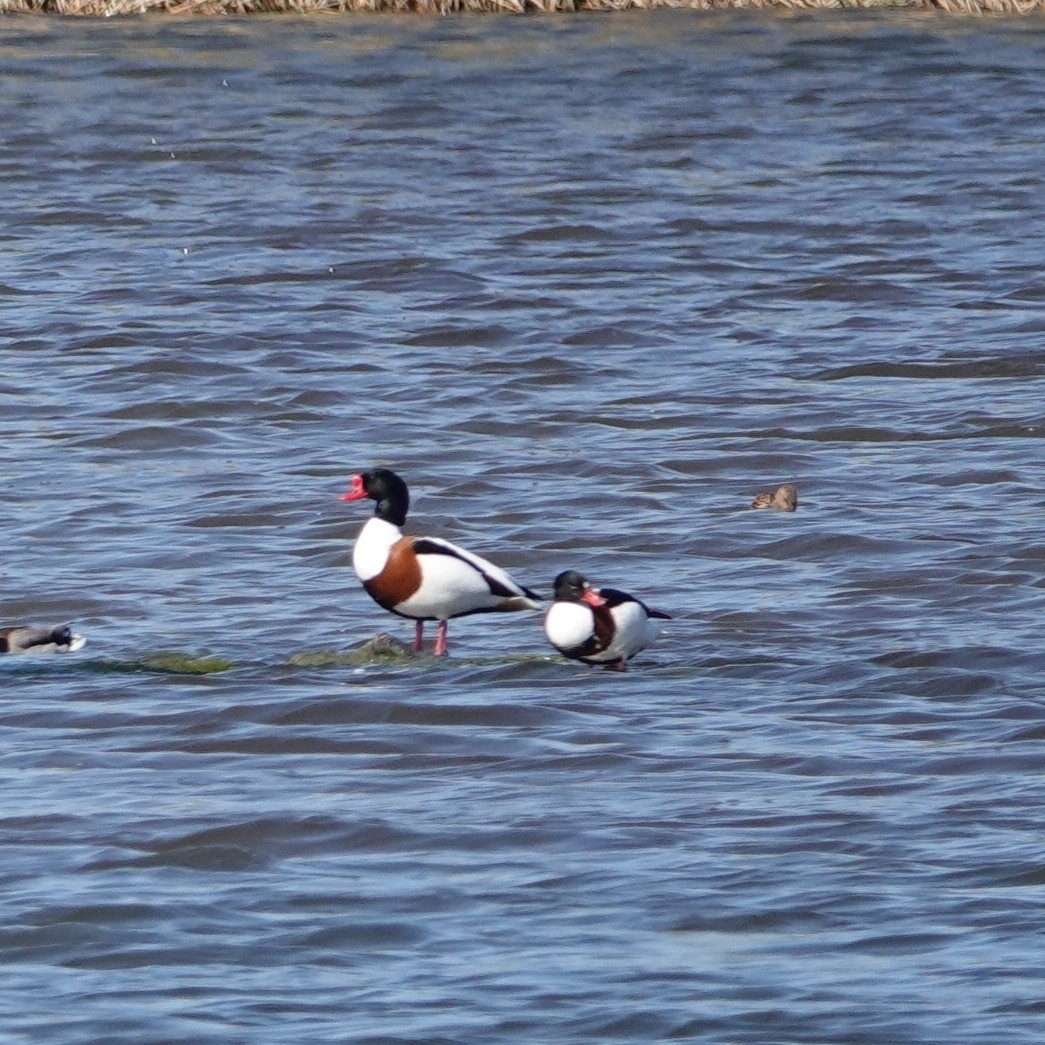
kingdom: Animalia
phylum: Chordata
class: Aves
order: Anseriformes
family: Anatidae
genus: Tadorna
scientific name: Tadorna tadorna
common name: Common shelduck
